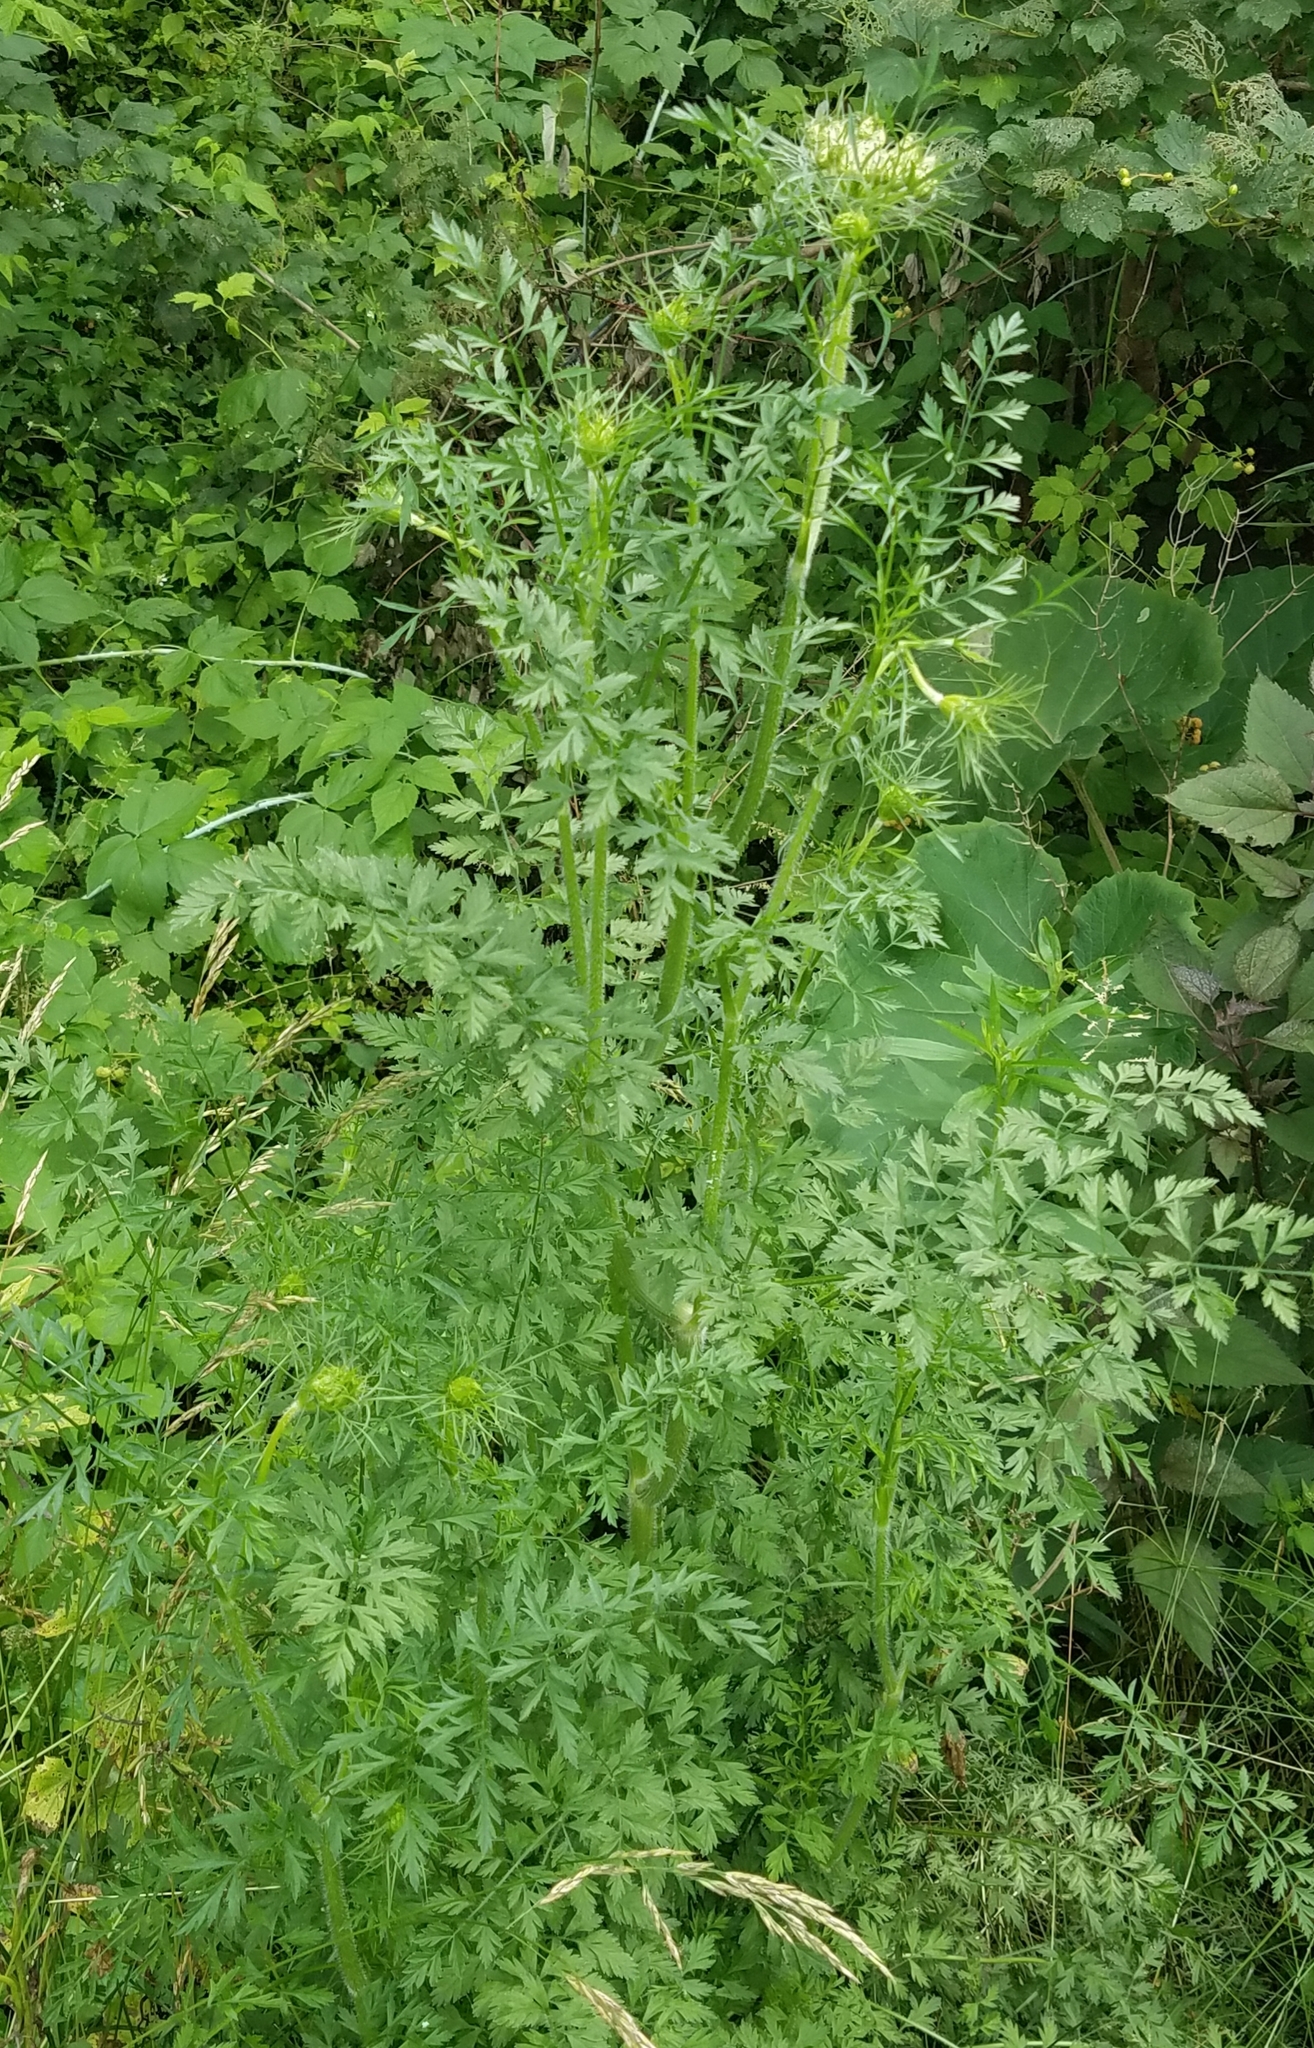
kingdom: Plantae
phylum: Tracheophyta
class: Magnoliopsida
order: Apiales
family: Apiaceae
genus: Daucus
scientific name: Daucus carota
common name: Wild carrot
